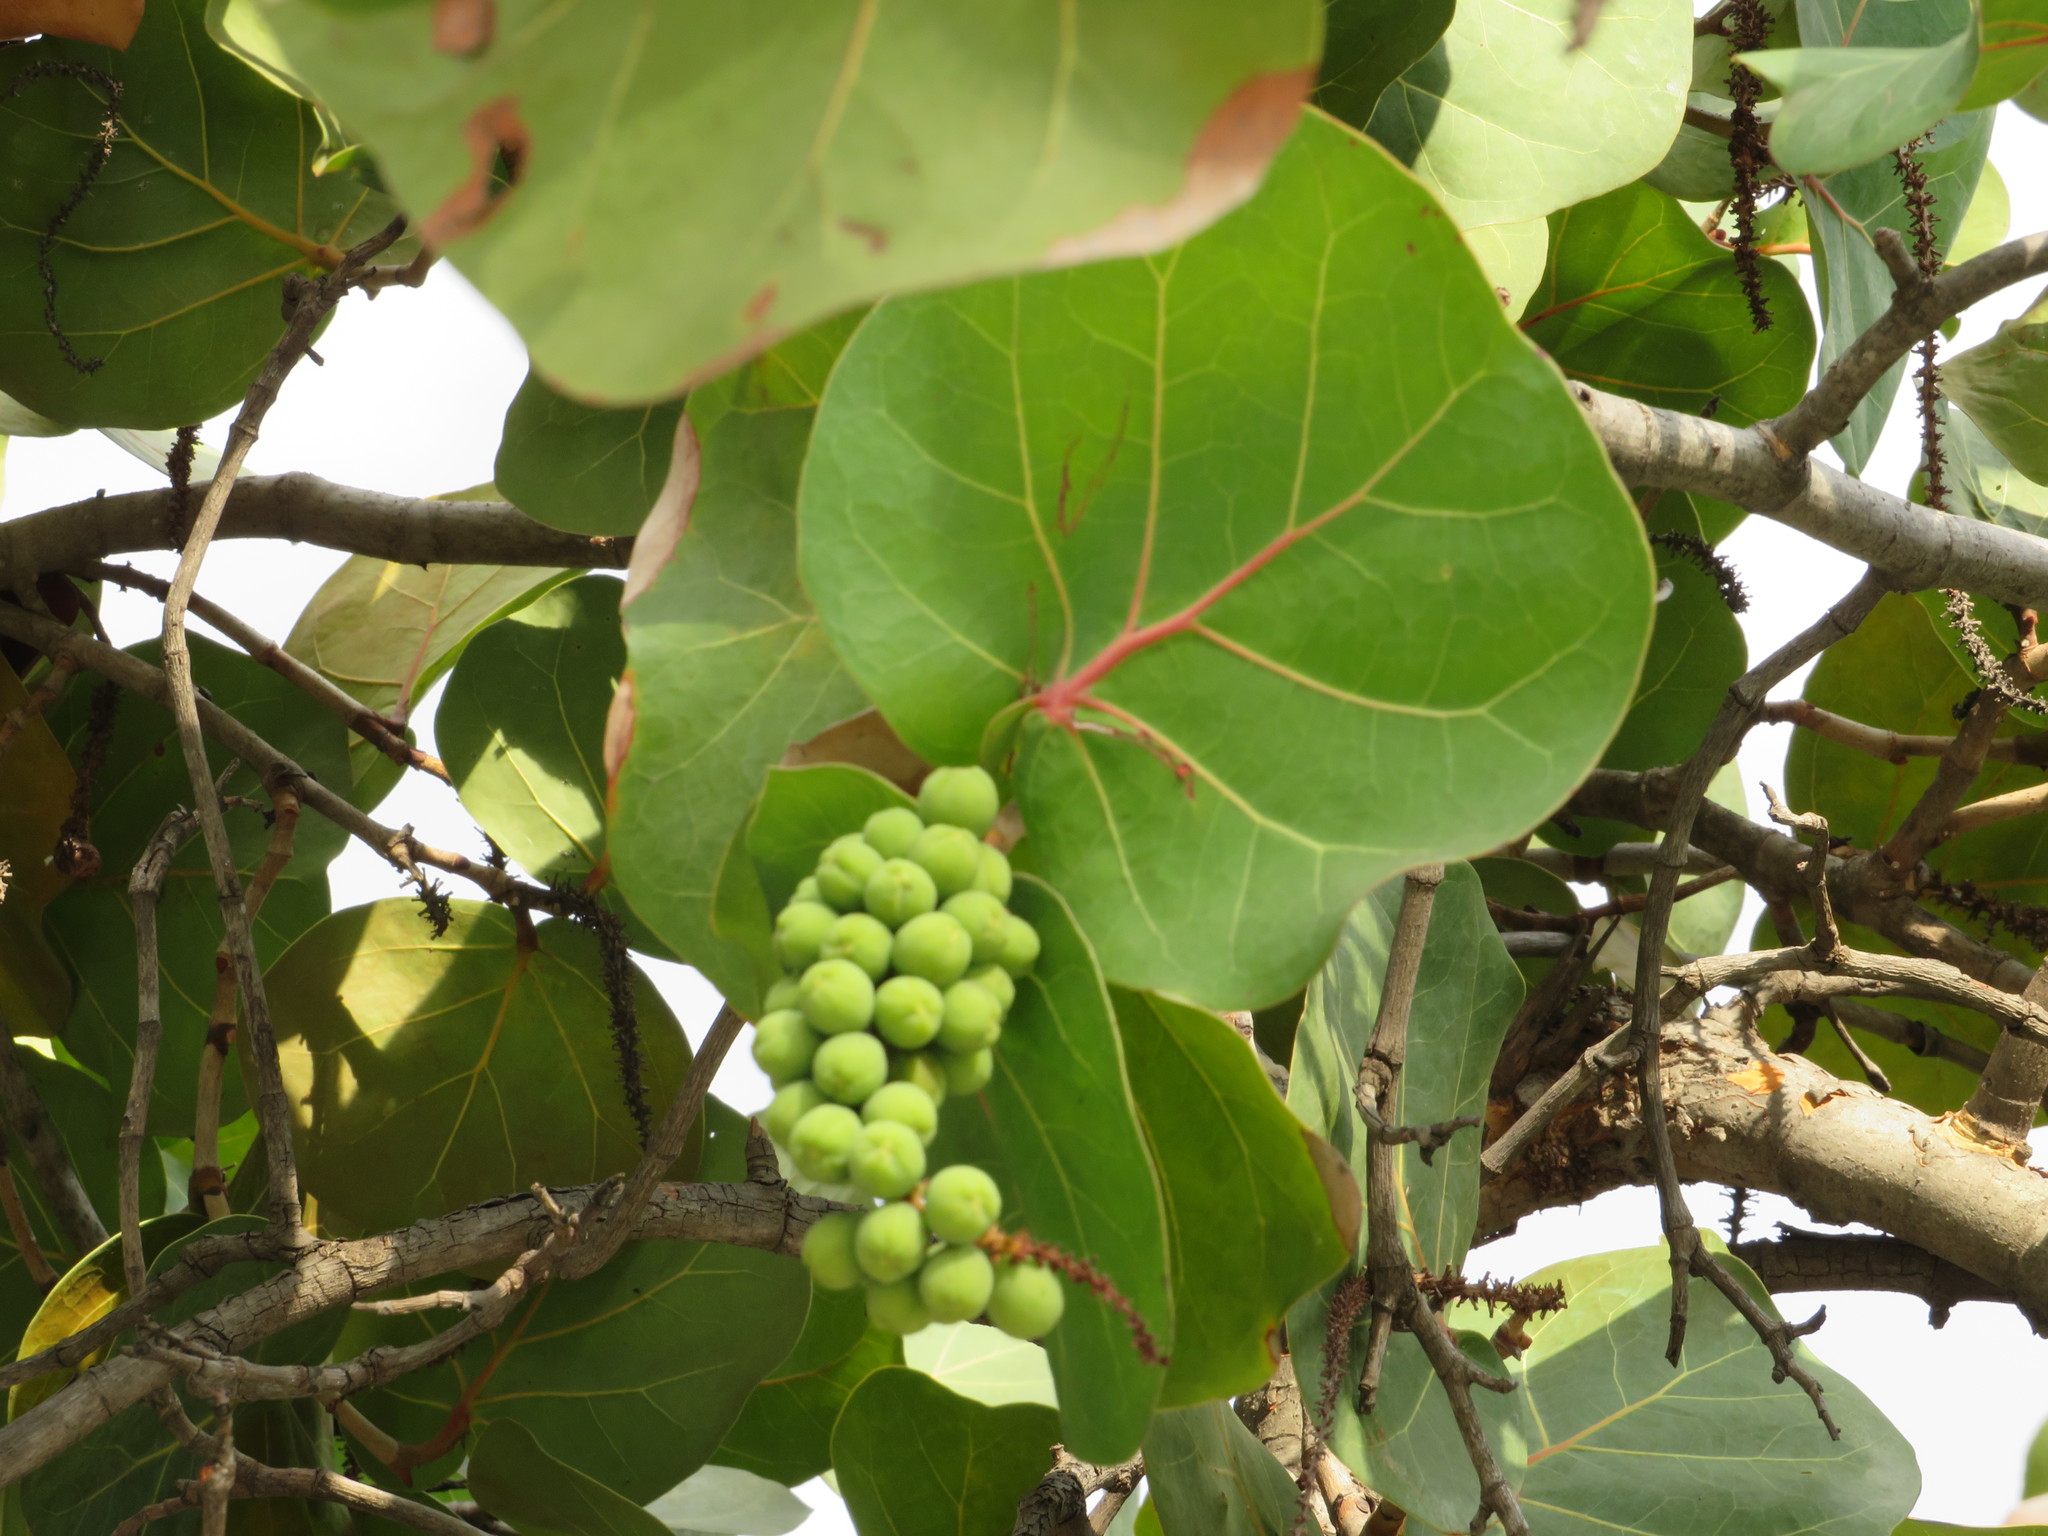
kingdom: Plantae
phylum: Tracheophyta
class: Magnoliopsida
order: Caryophyllales
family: Polygonaceae
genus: Coccoloba
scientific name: Coccoloba uvifera
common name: Seagrape
